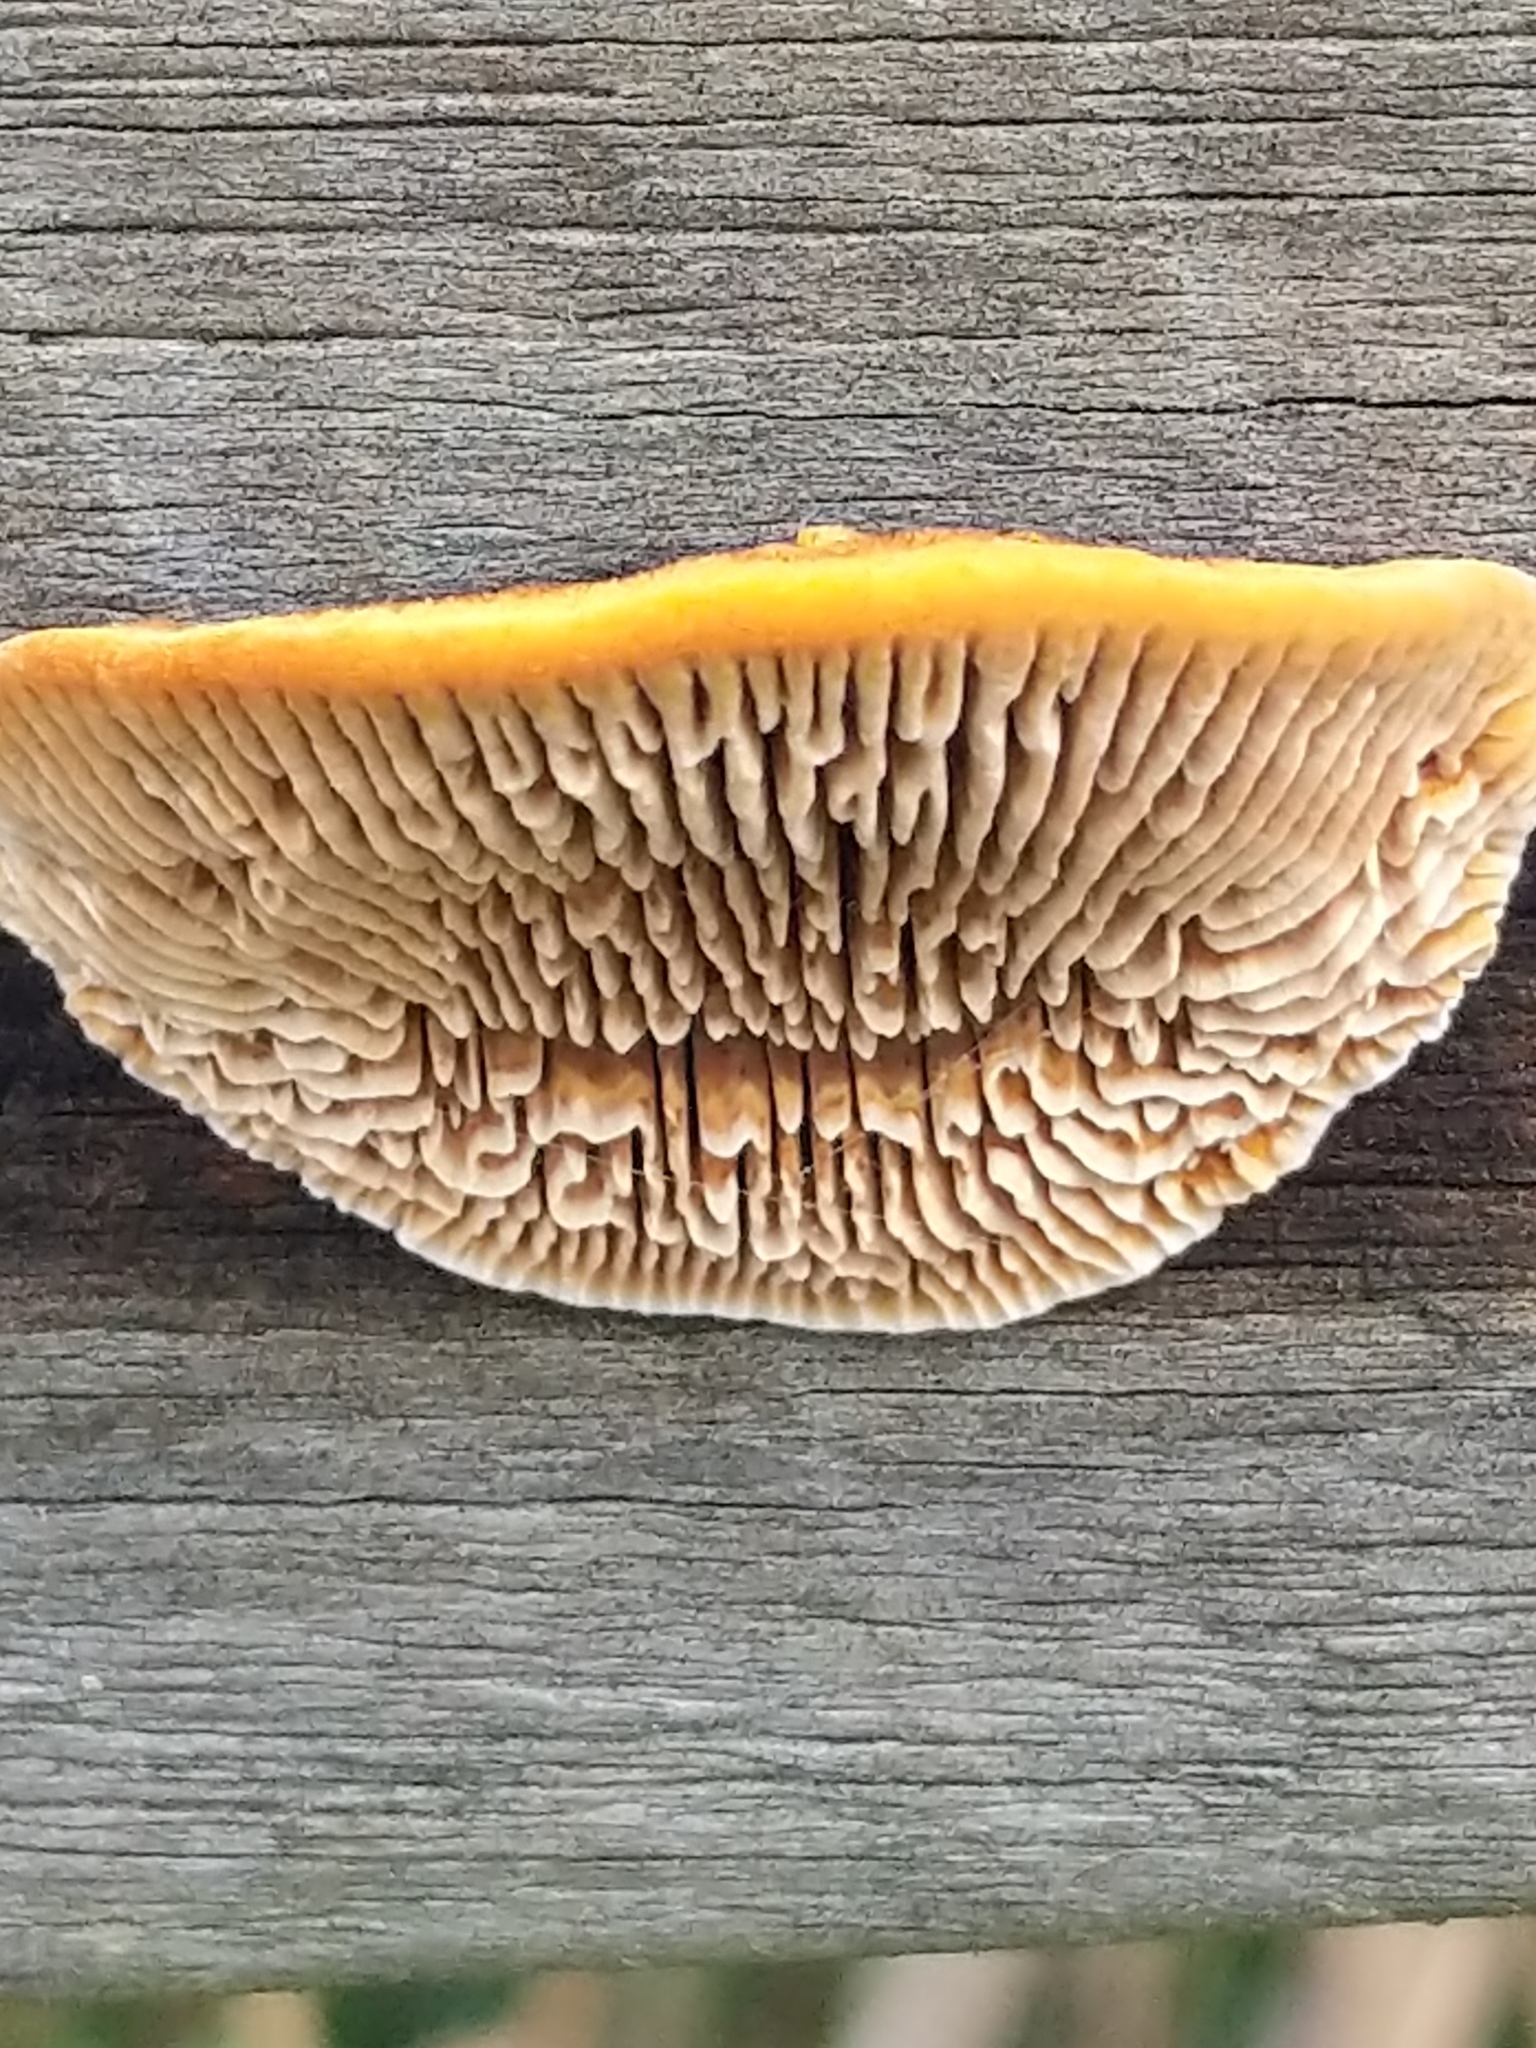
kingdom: Fungi
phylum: Basidiomycota
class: Agaricomycetes
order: Gloeophyllales
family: Gloeophyllaceae
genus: Gloeophyllum
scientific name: Gloeophyllum sepiarium
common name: Conifer mazegill
